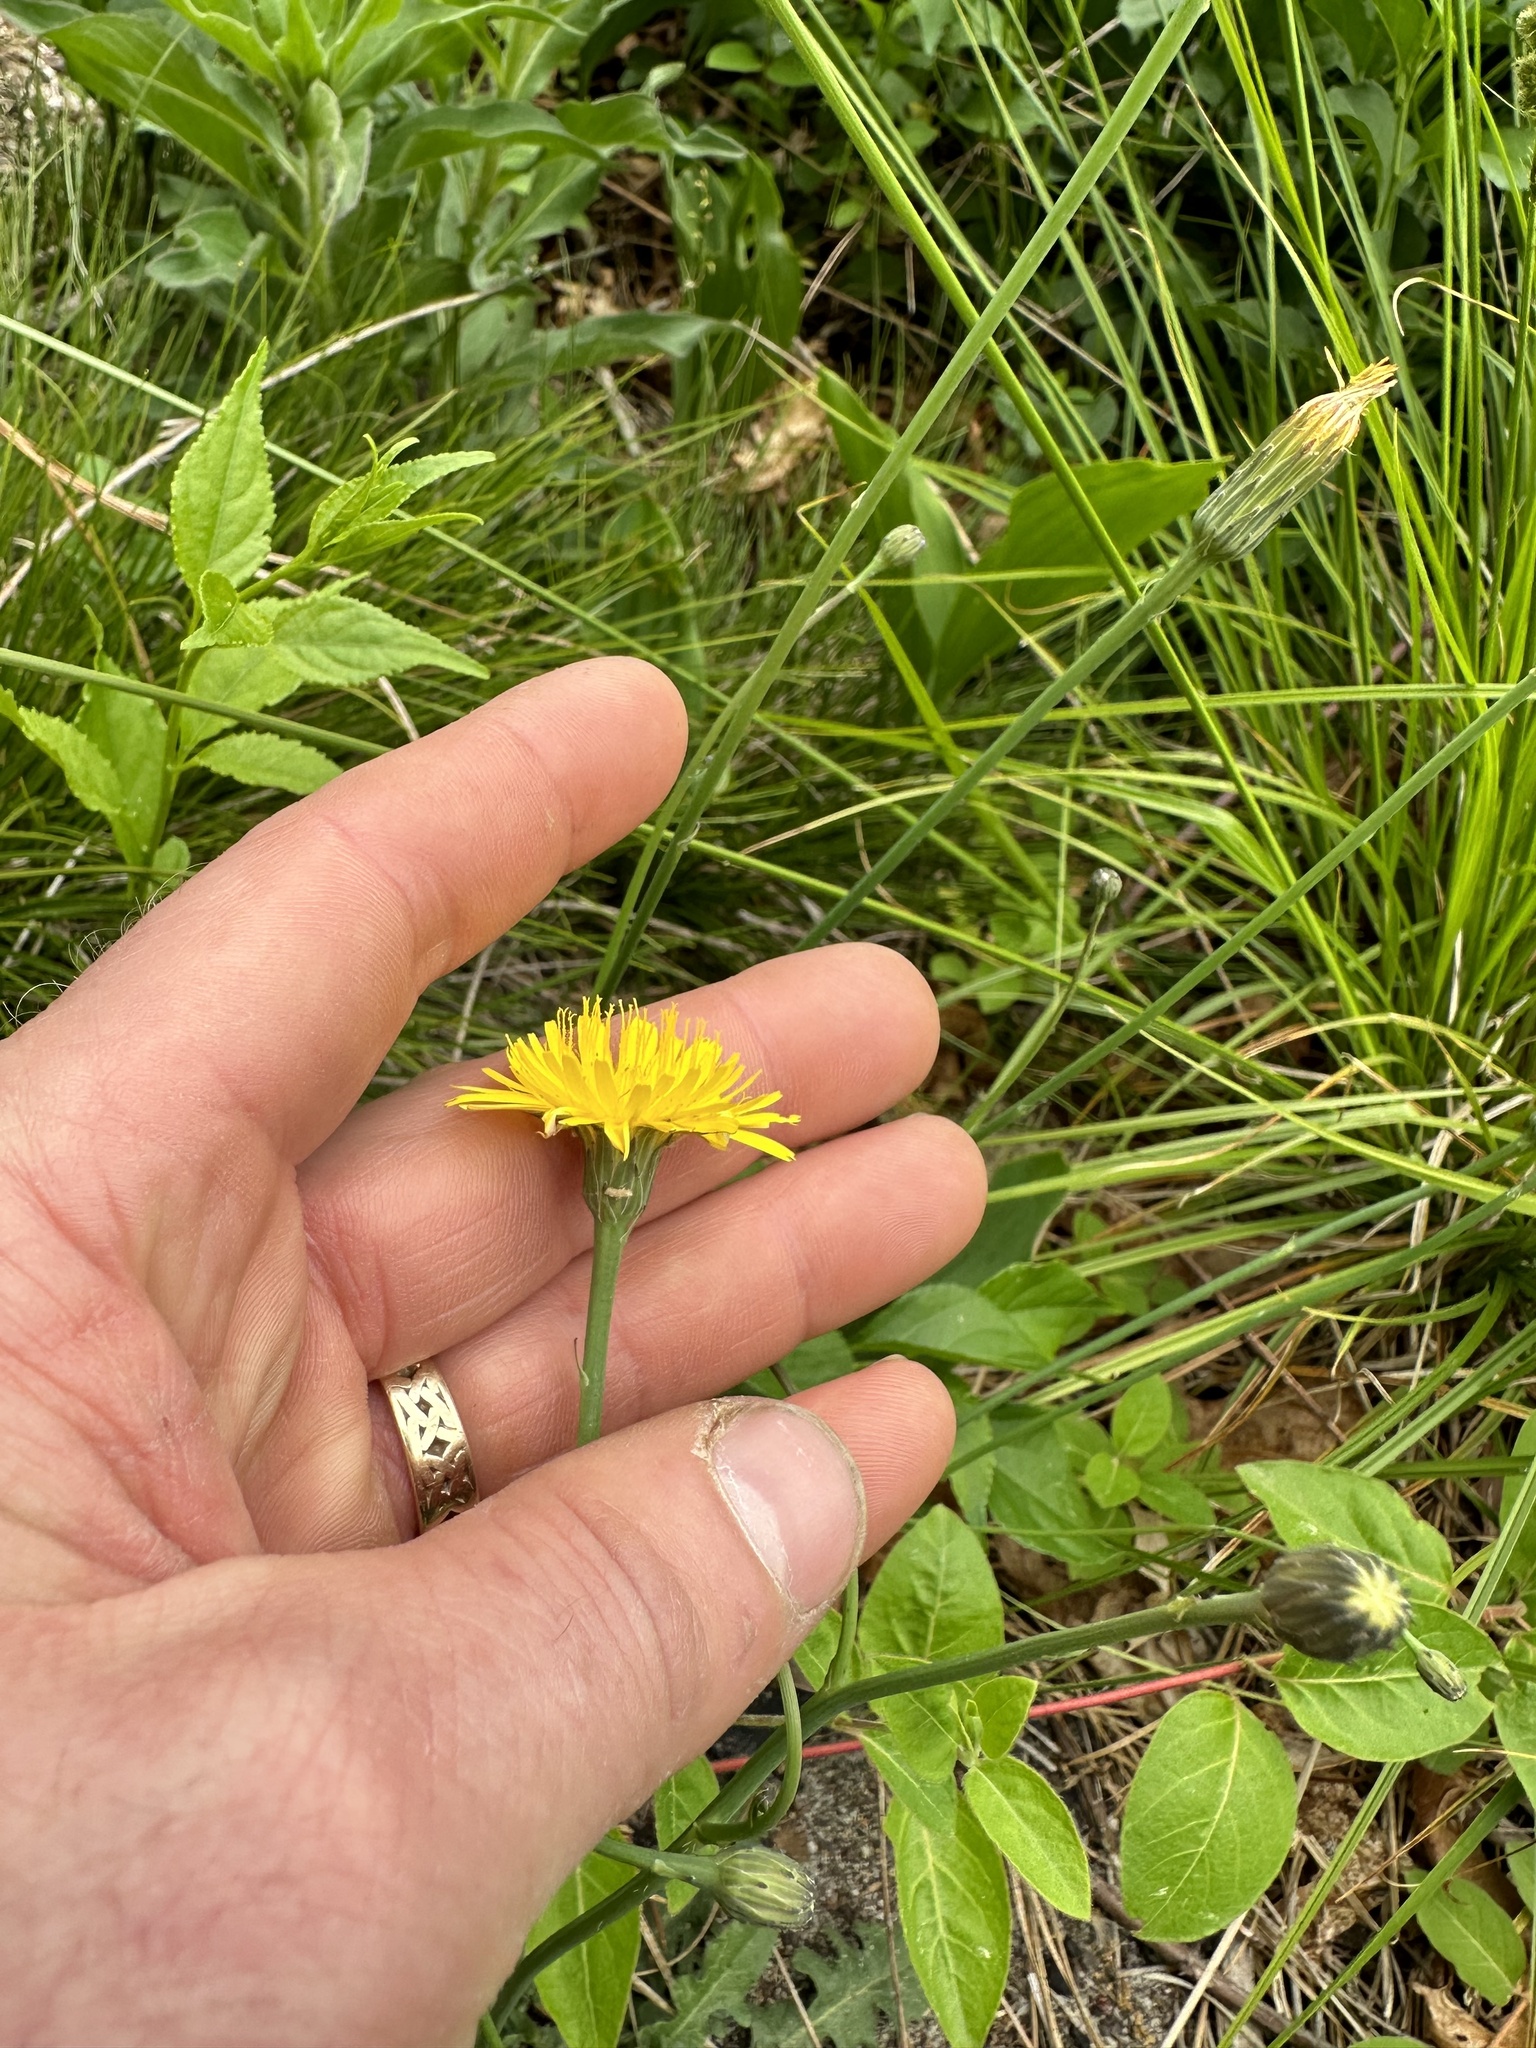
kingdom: Plantae
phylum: Tracheophyta
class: Magnoliopsida
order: Asterales
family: Asteraceae
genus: Hypochaeris
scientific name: Hypochaeris radicata
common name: Flatweed
